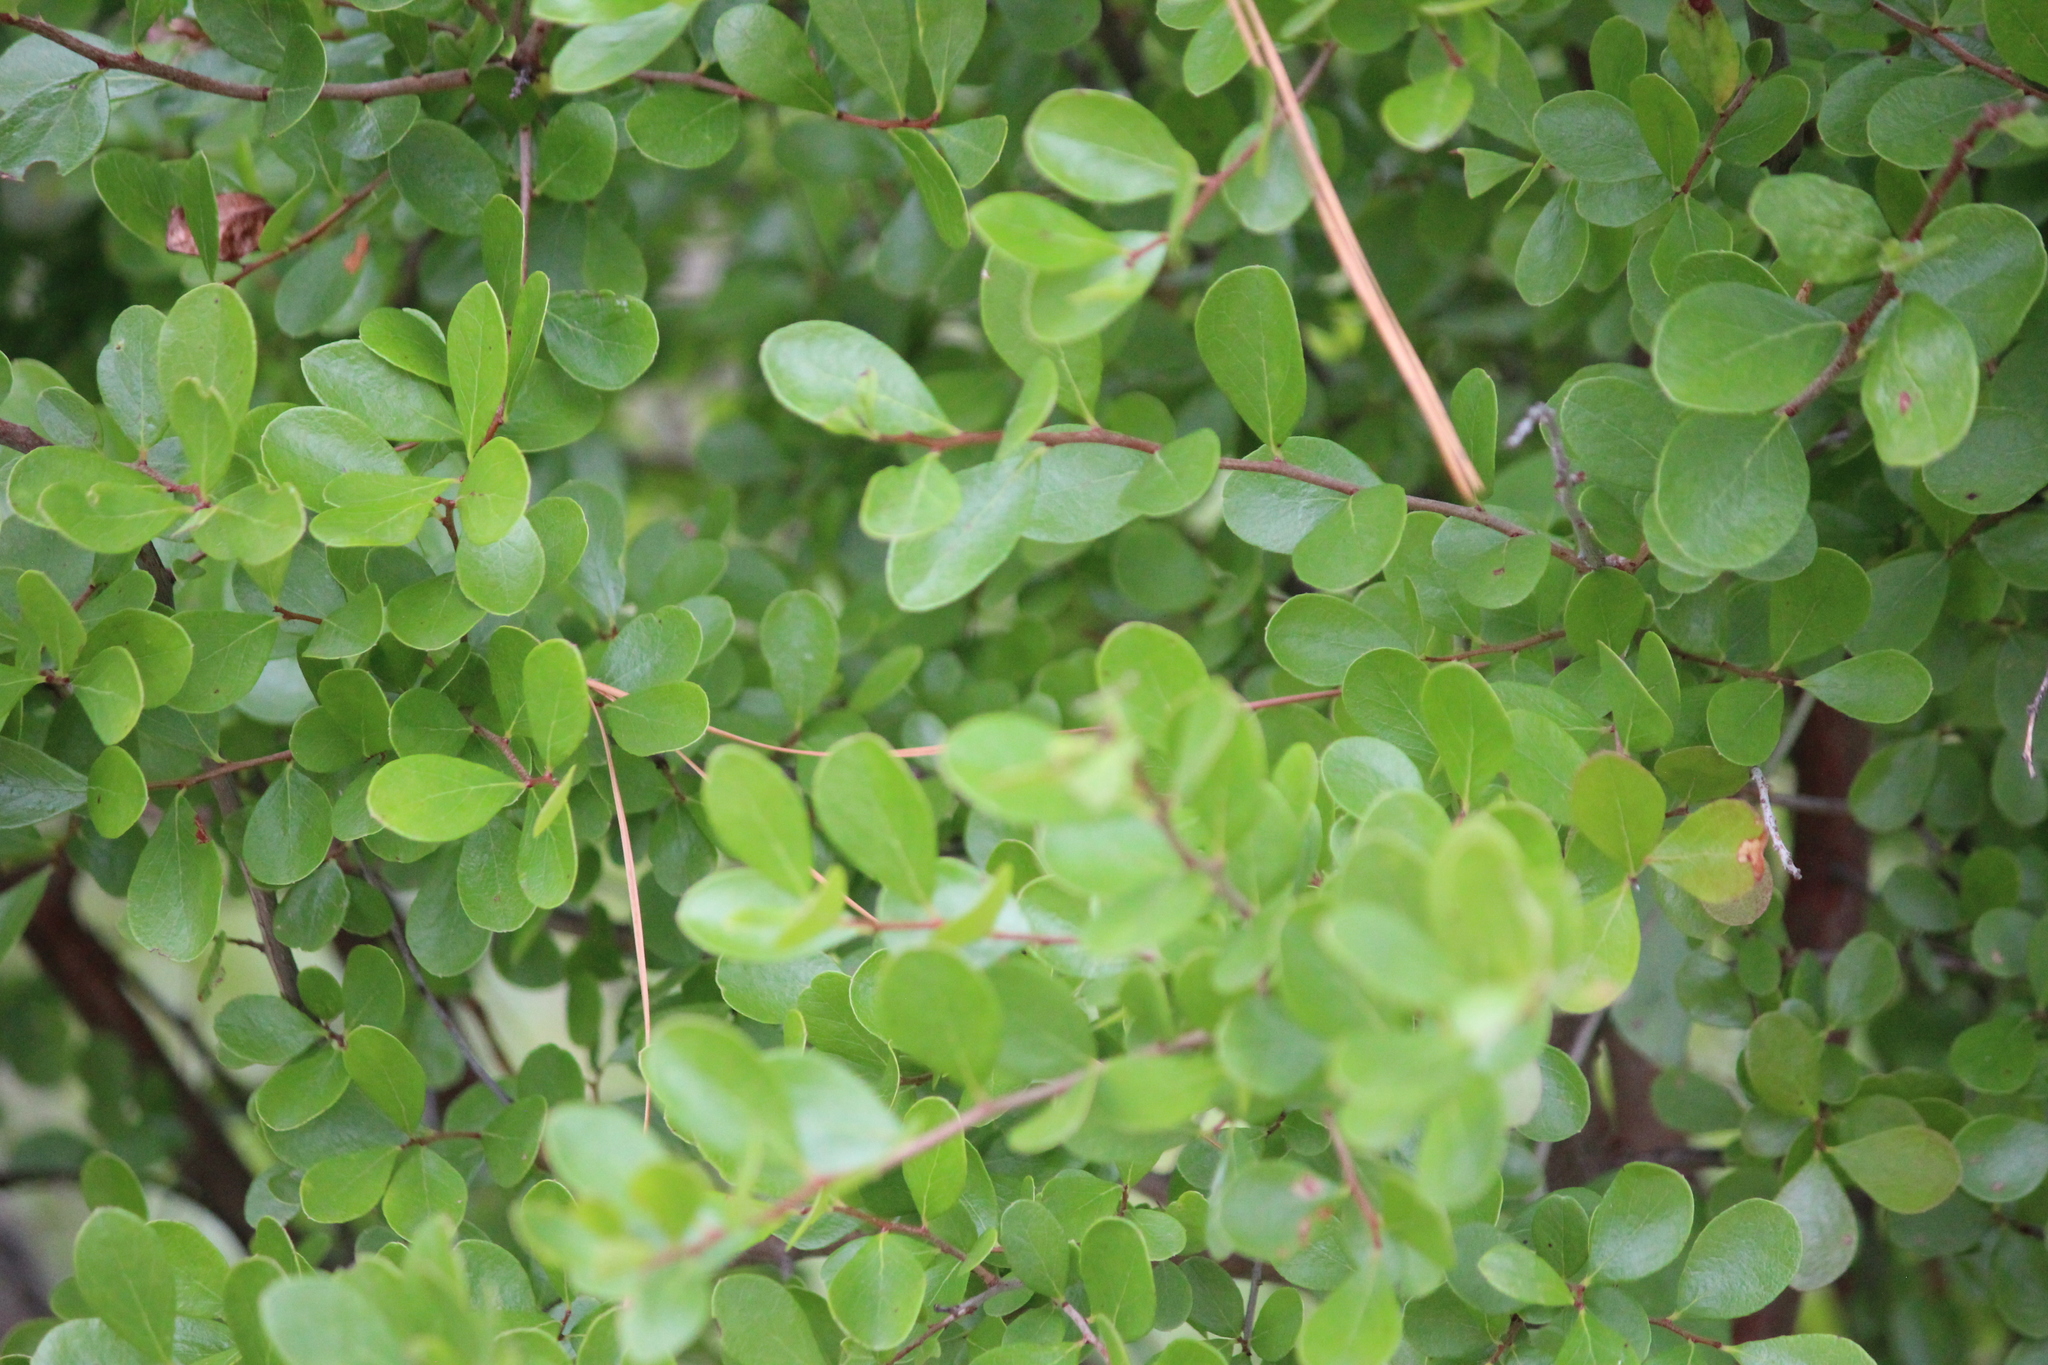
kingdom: Plantae
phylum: Tracheophyta
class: Magnoliopsida
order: Ericales
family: Ericaceae
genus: Vaccinium
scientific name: Vaccinium arboreum
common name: Farkleberry
